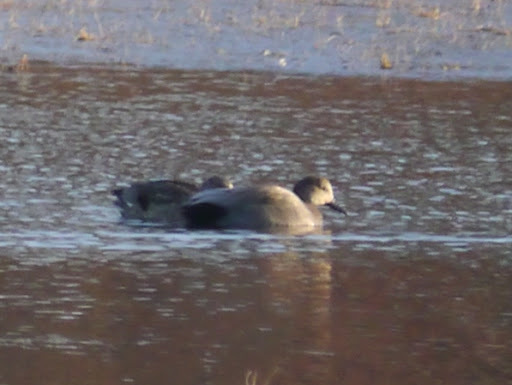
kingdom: Animalia
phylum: Chordata
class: Aves
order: Anseriformes
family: Anatidae
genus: Mareca
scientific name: Mareca strepera
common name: Gadwall
